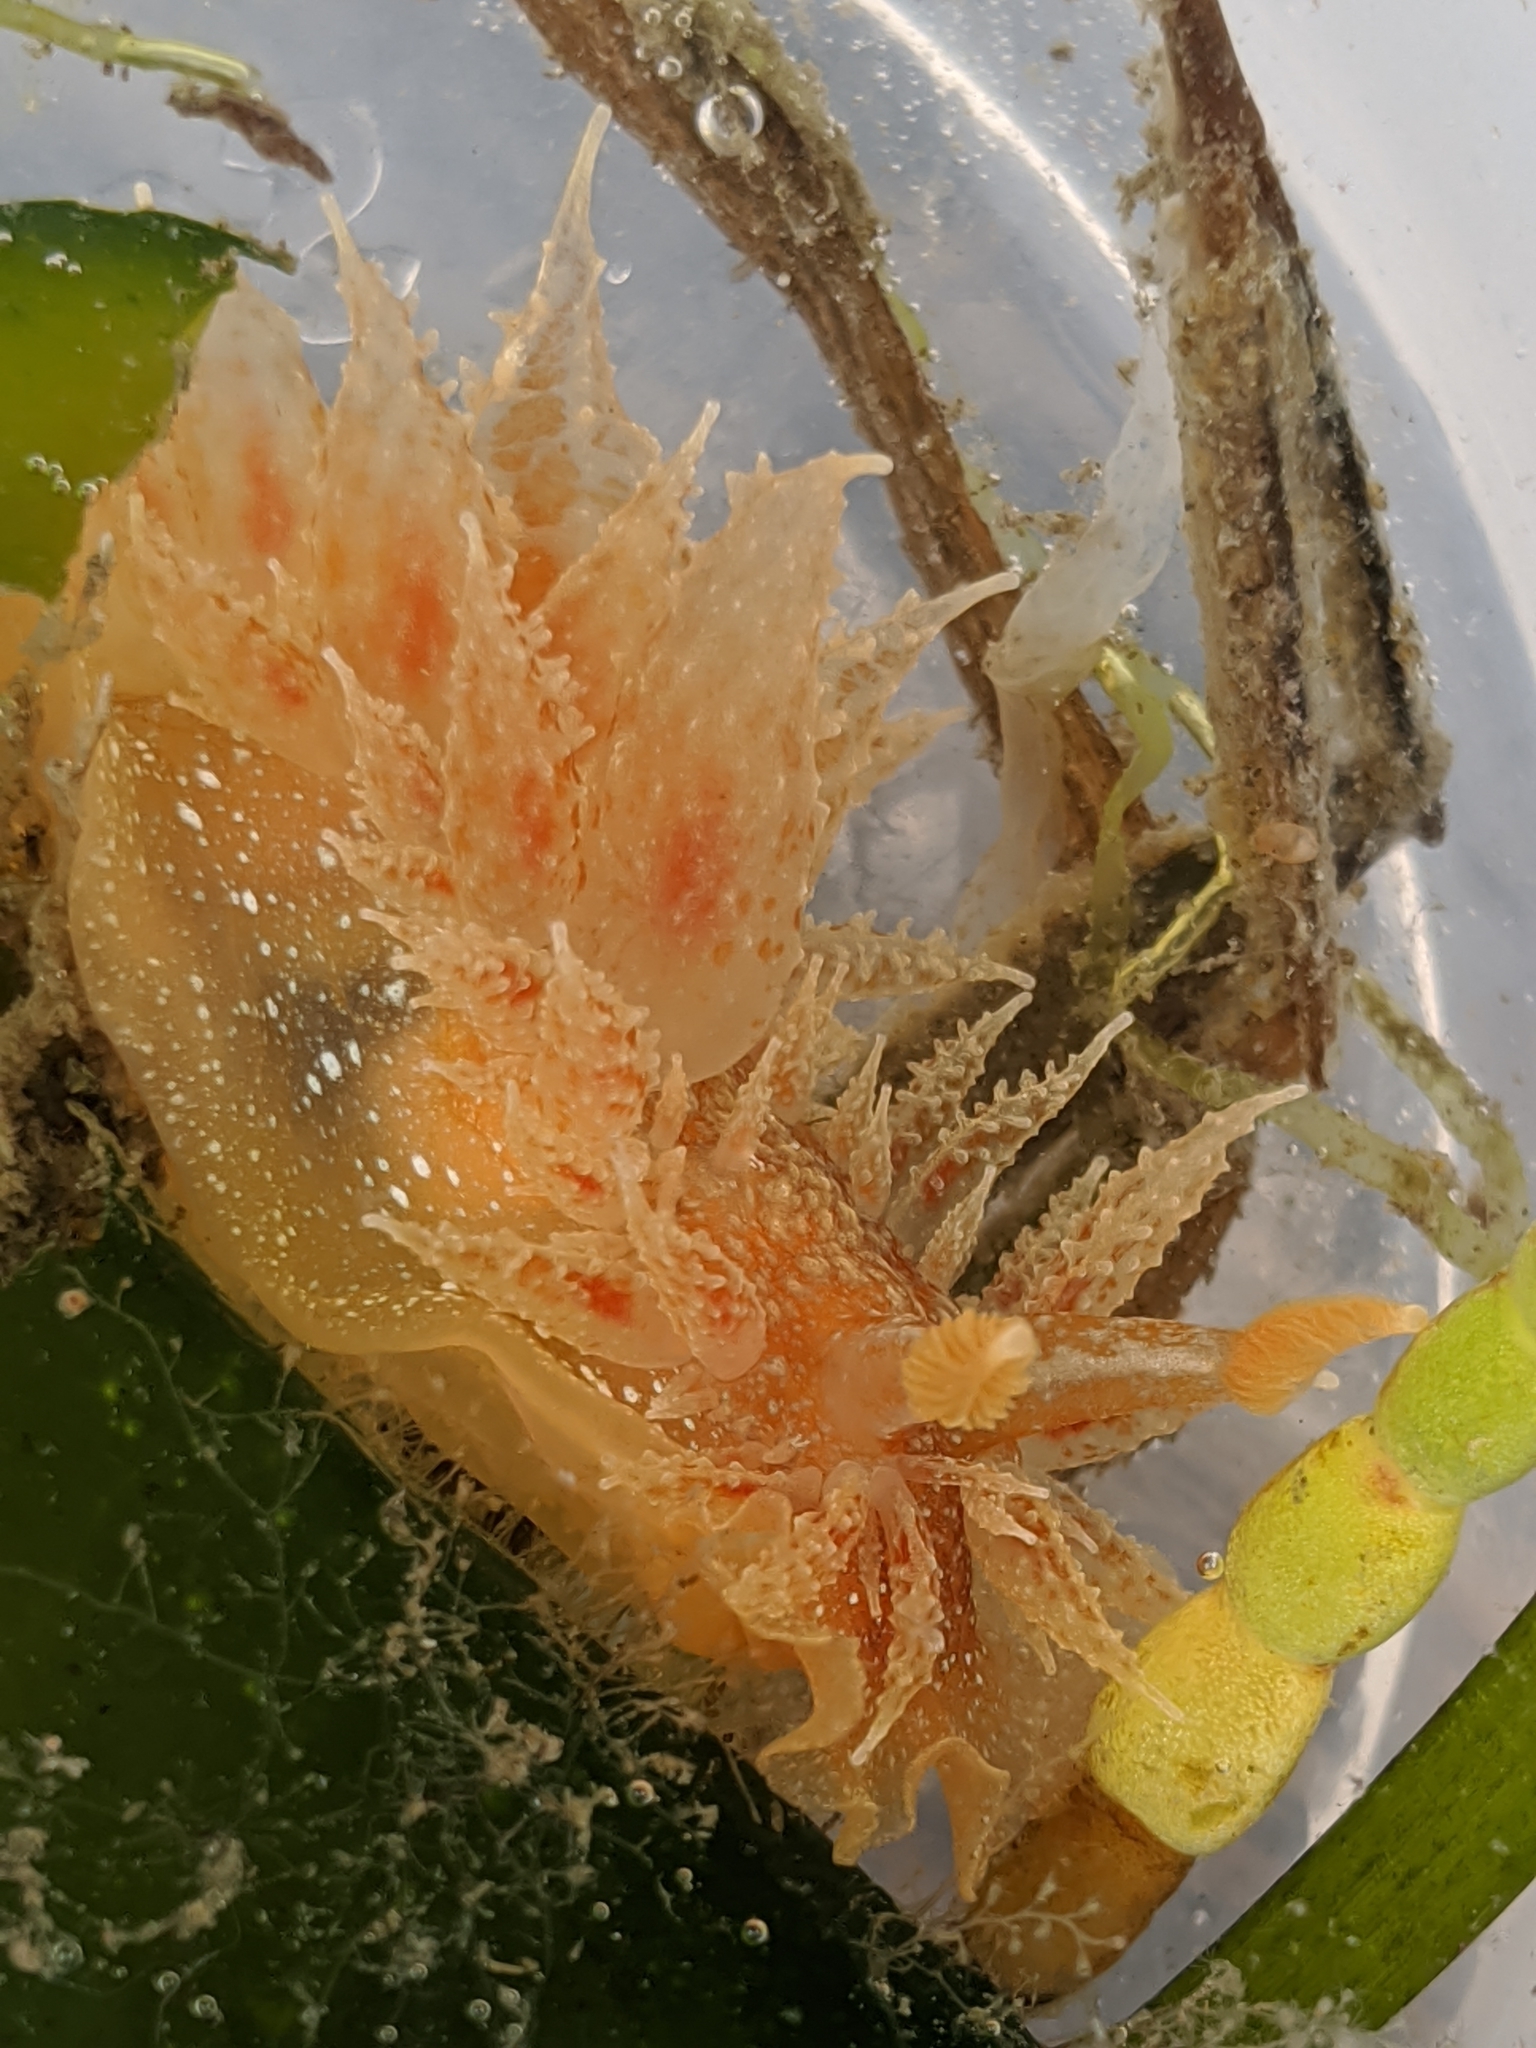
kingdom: Animalia
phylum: Mollusca
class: Gastropoda
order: Nudibranchia
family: Dironidae
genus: Dirona
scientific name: Dirona picta
